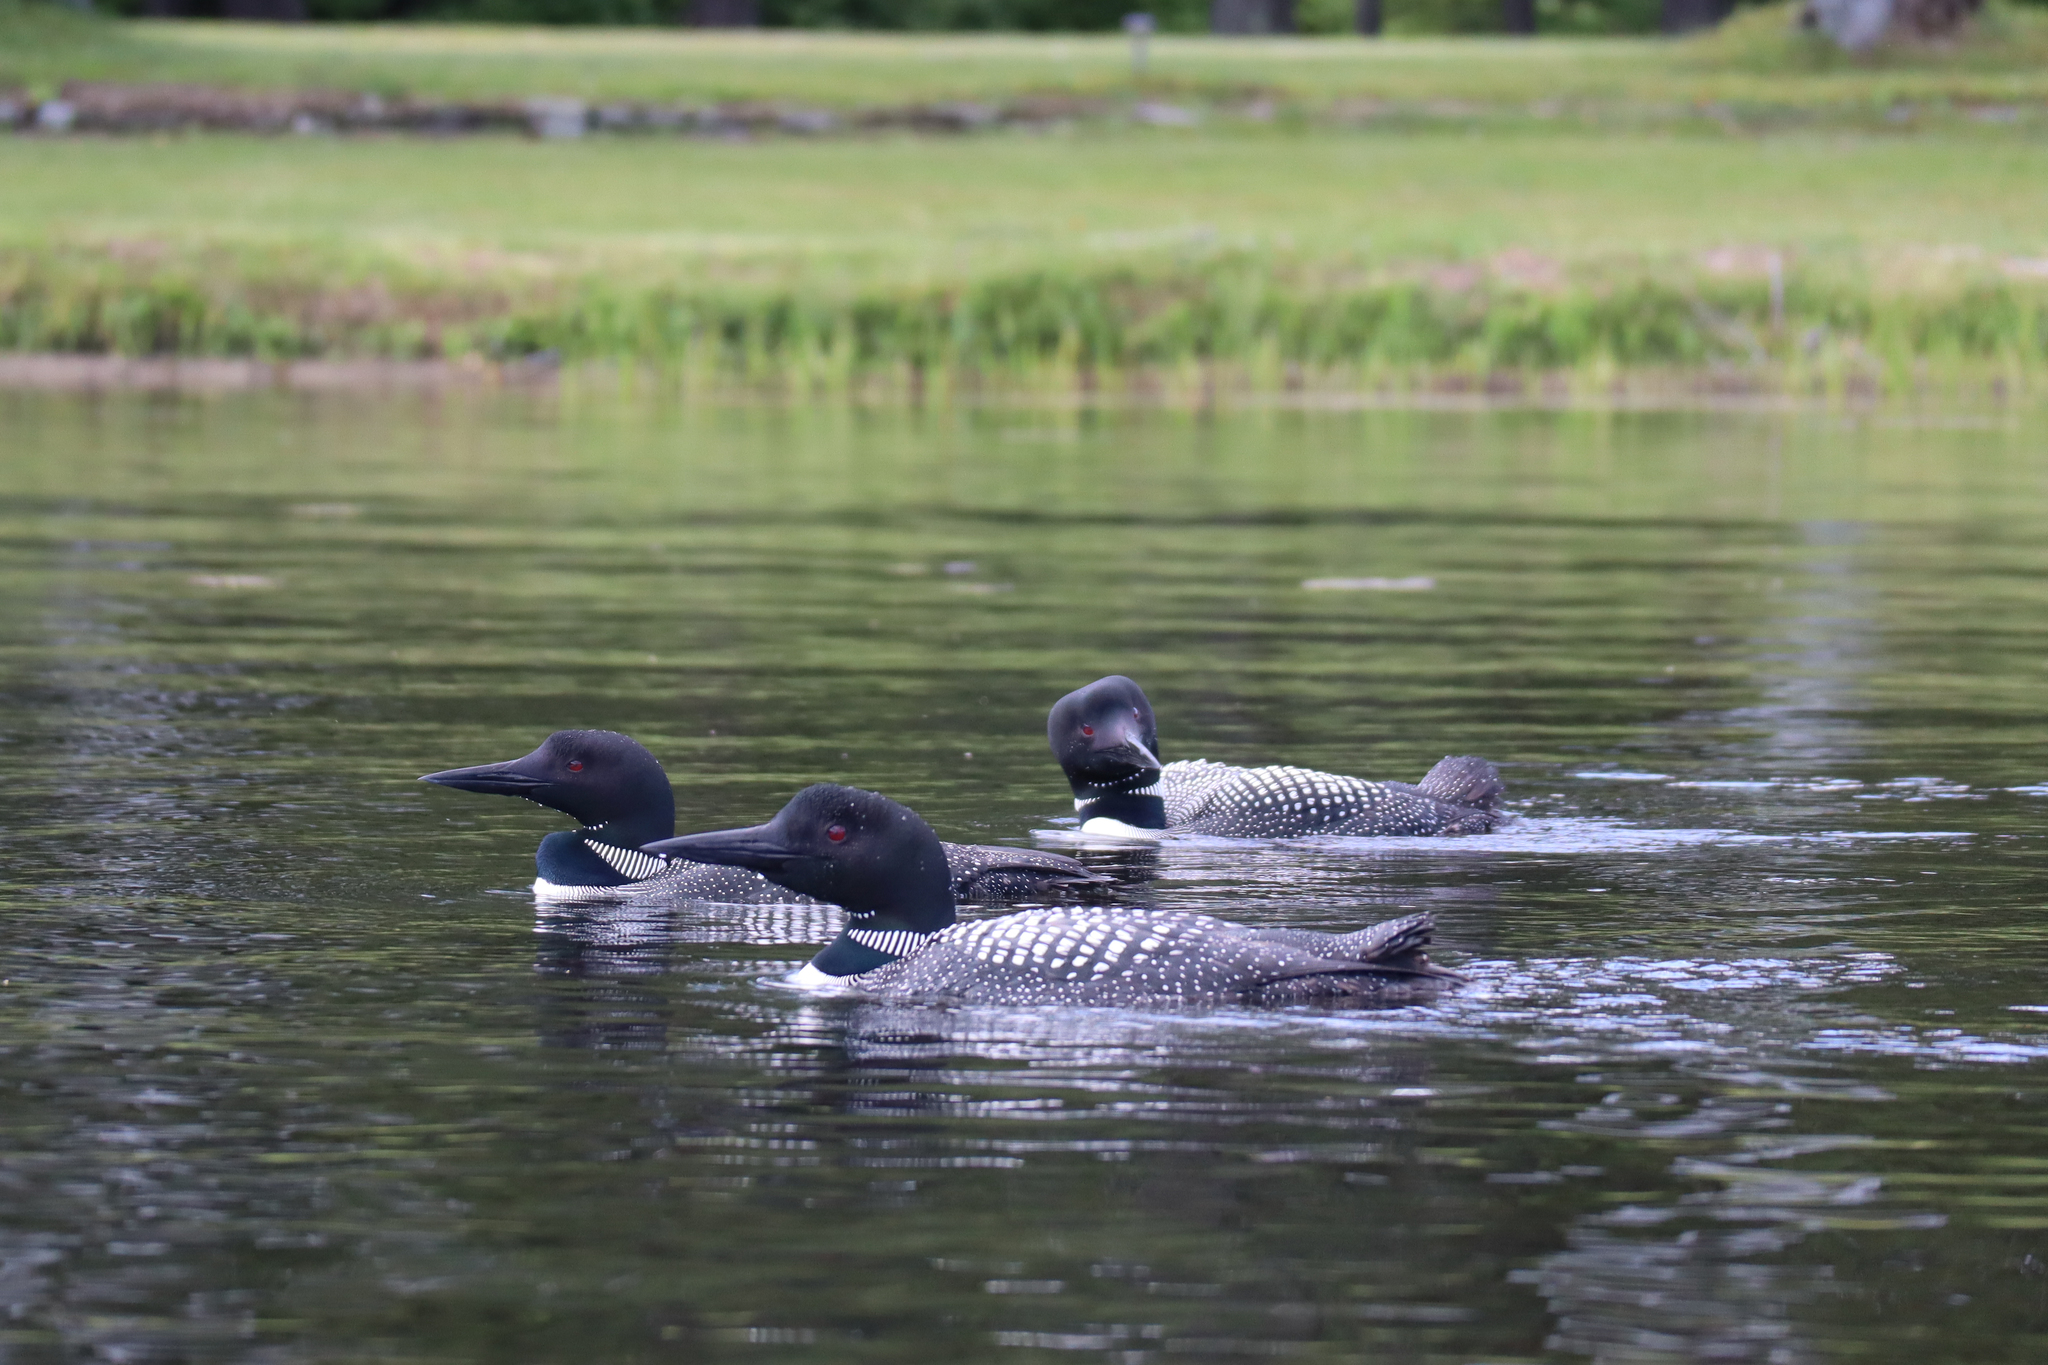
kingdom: Animalia
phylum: Chordata
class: Aves
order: Gaviiformes
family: Gaviidae
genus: Gavia
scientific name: Gavia immer
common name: Common loon
